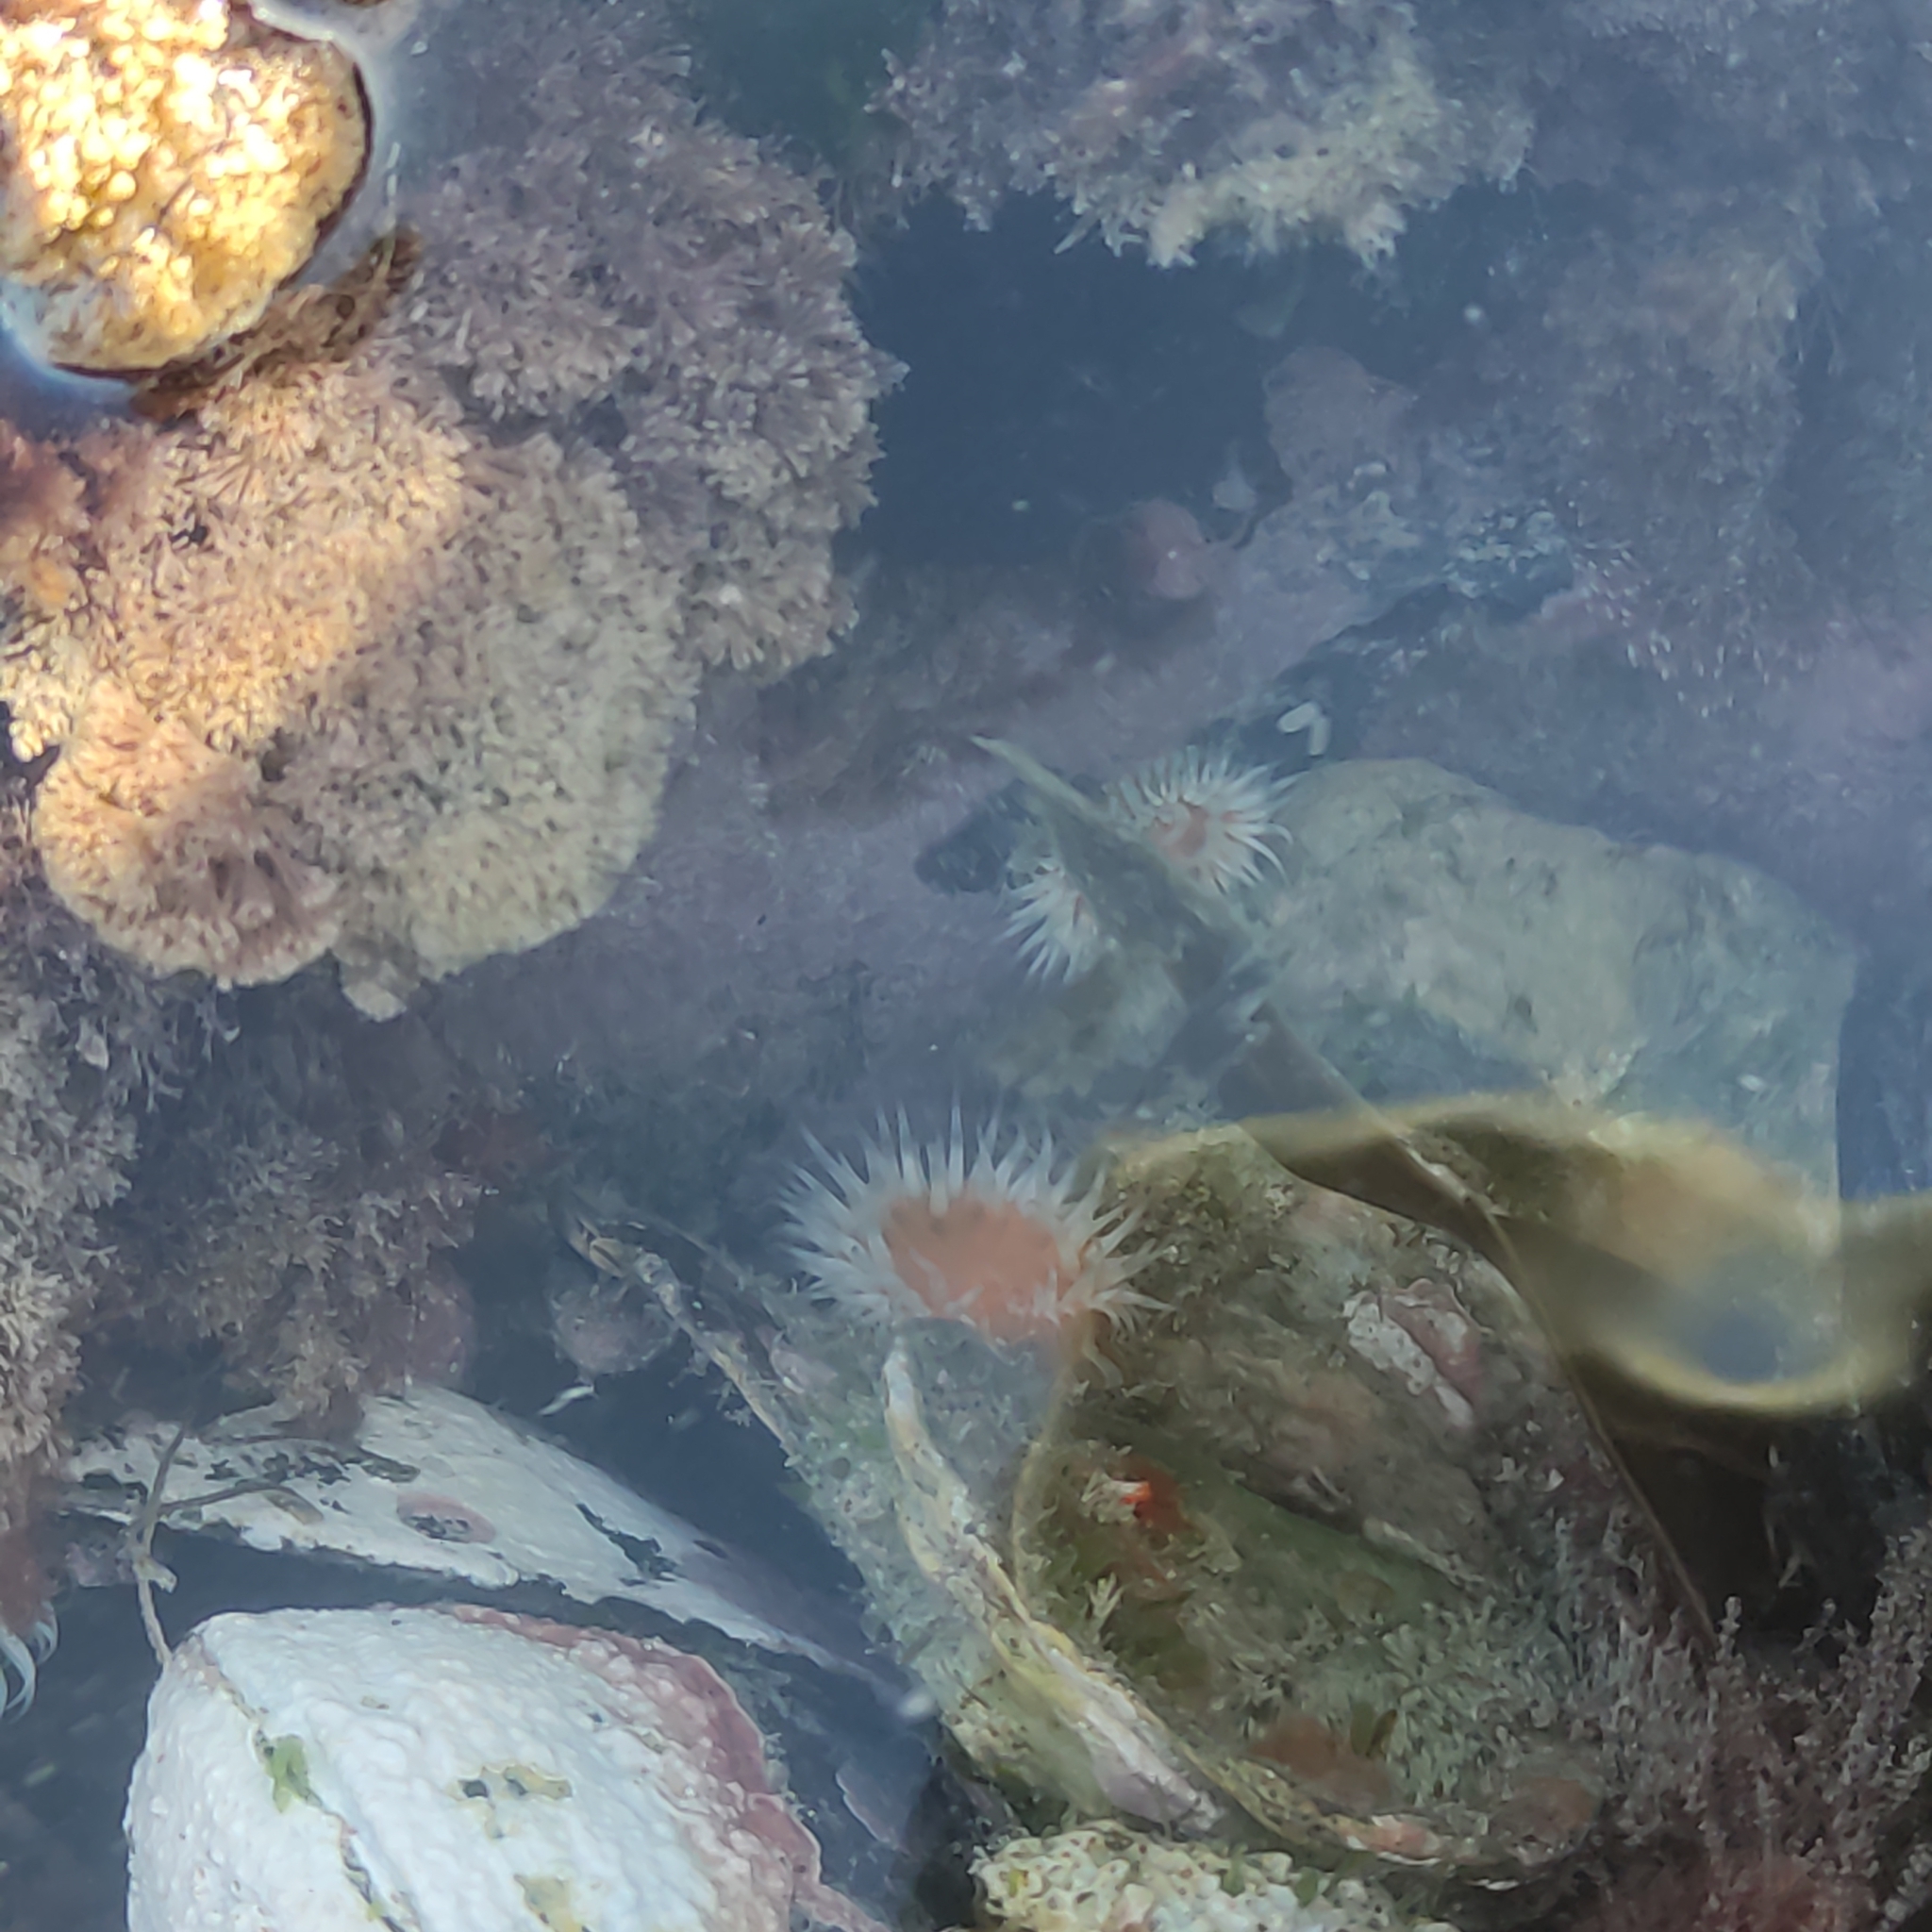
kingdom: Animalia
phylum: Cnidaria
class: Anthozoa
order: Actiniaria
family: Sagartiidae
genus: Anthothoe
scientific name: Anthothoe albocincta
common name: Orange striped anemone
